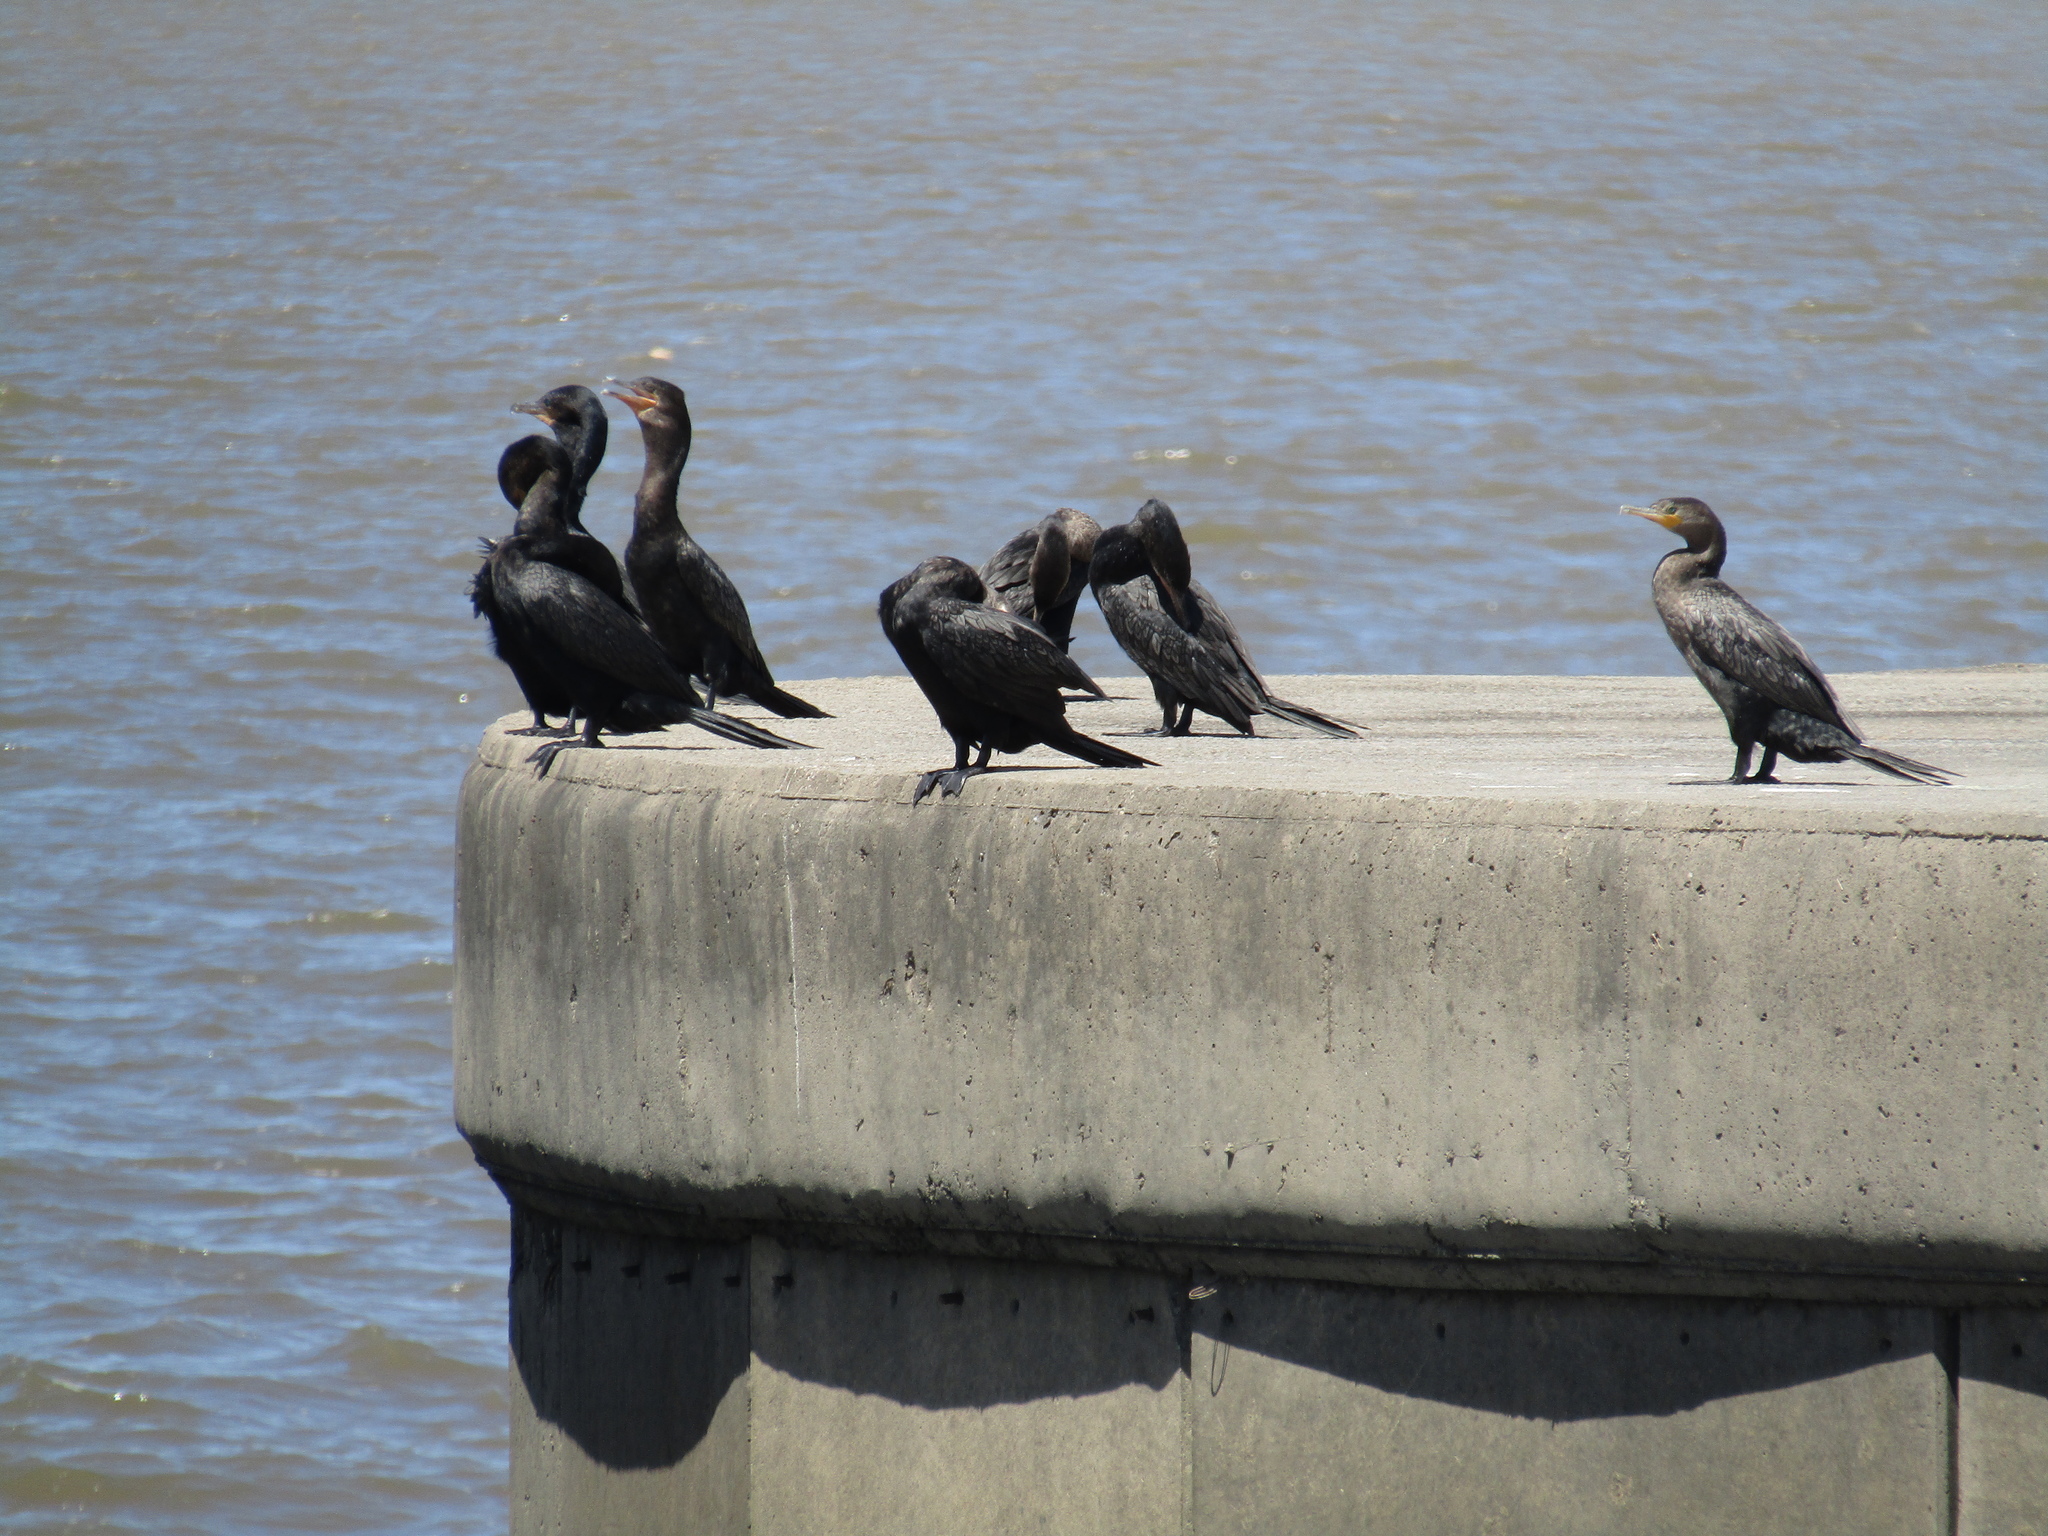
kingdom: Animalia
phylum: Chordata
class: Aves
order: Suliformes
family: Phalacrocoracidae
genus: Phalacrocorax
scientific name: Phalacrocorax brasilianus
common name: Neotropic cormorant
